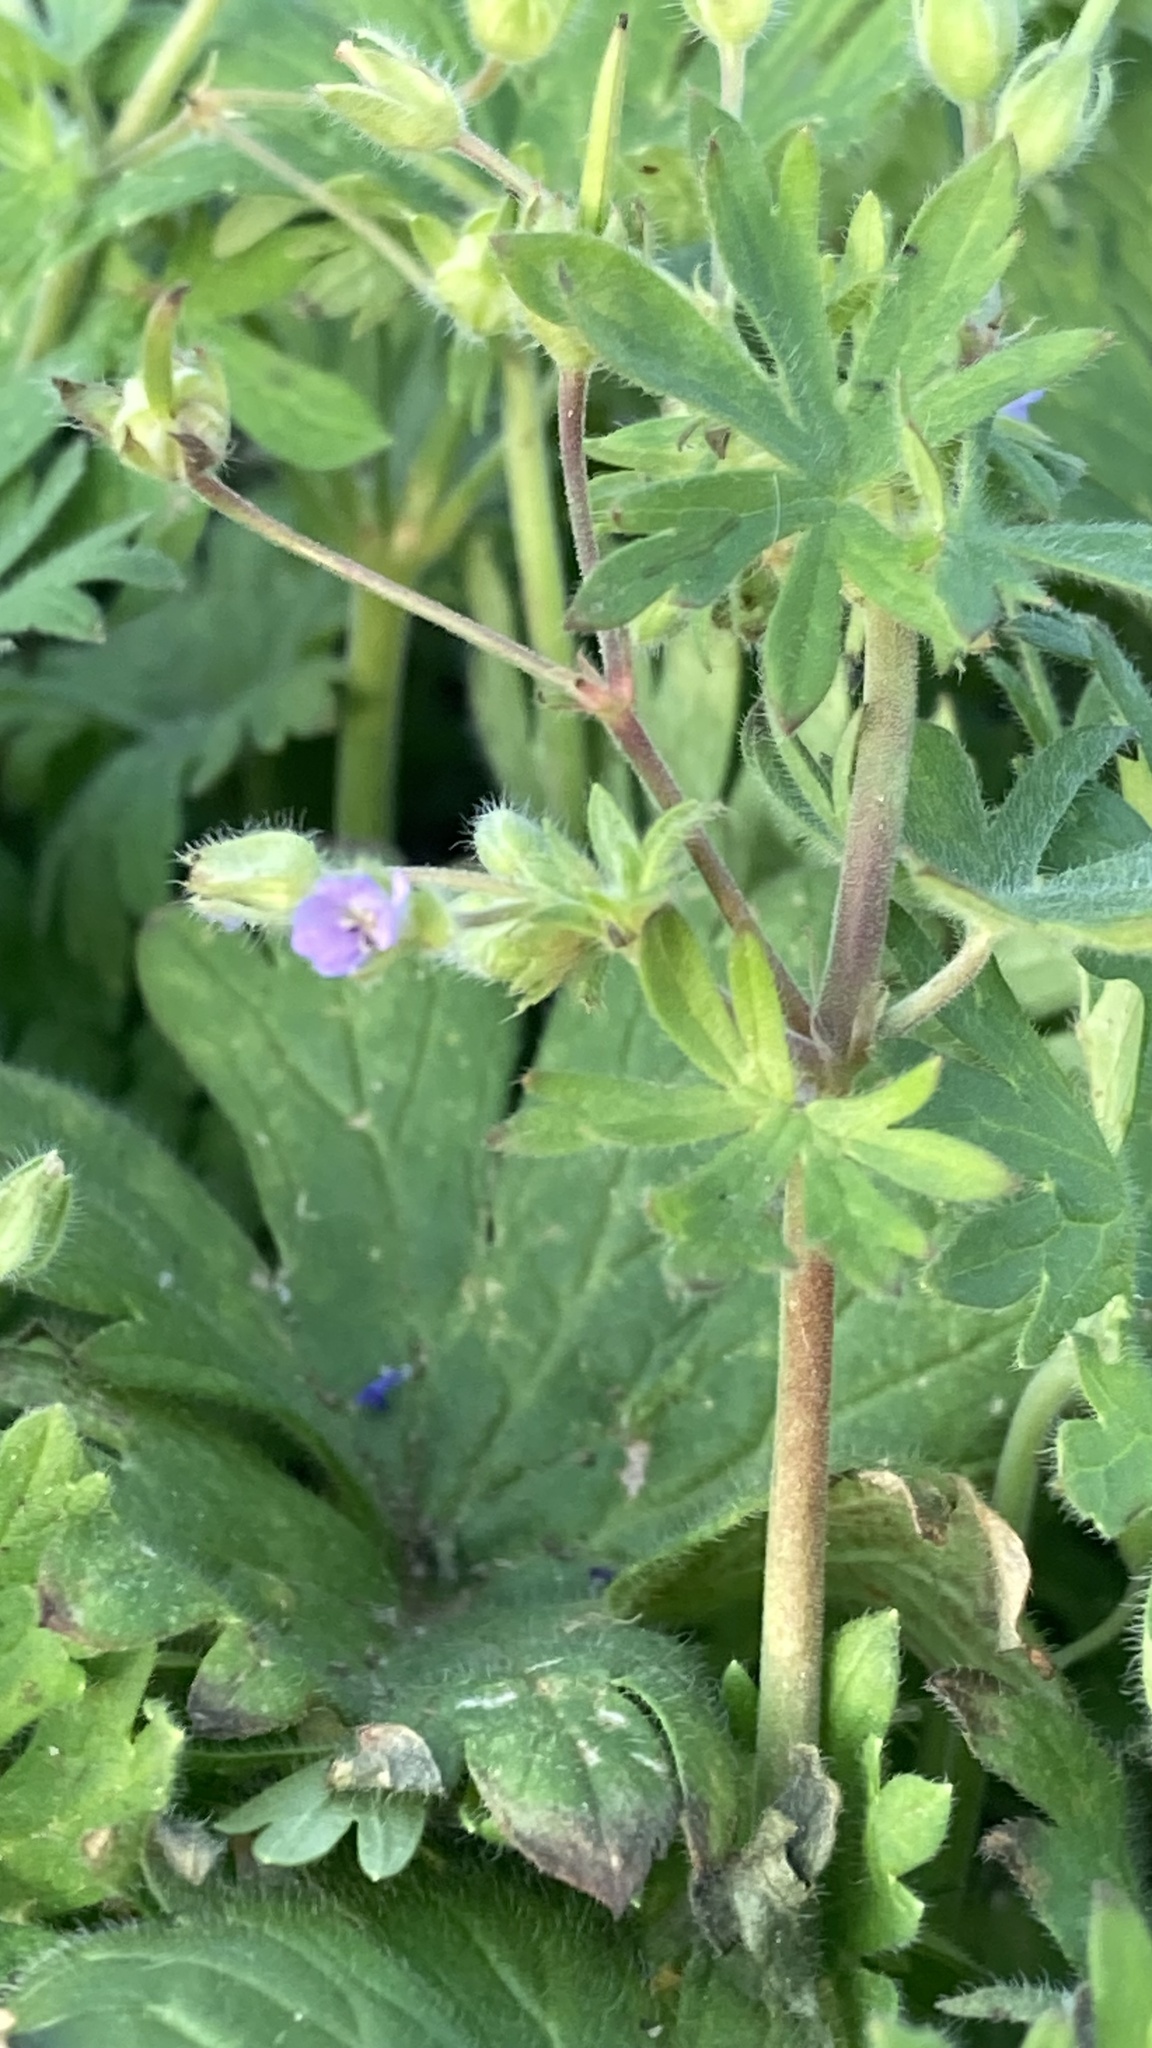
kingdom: Plantae
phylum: Tracheophyta
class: Magnoliopsida
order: Geraniales
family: Geraniaceae
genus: Geranium
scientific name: Geranium pusillum
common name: Small geranium
